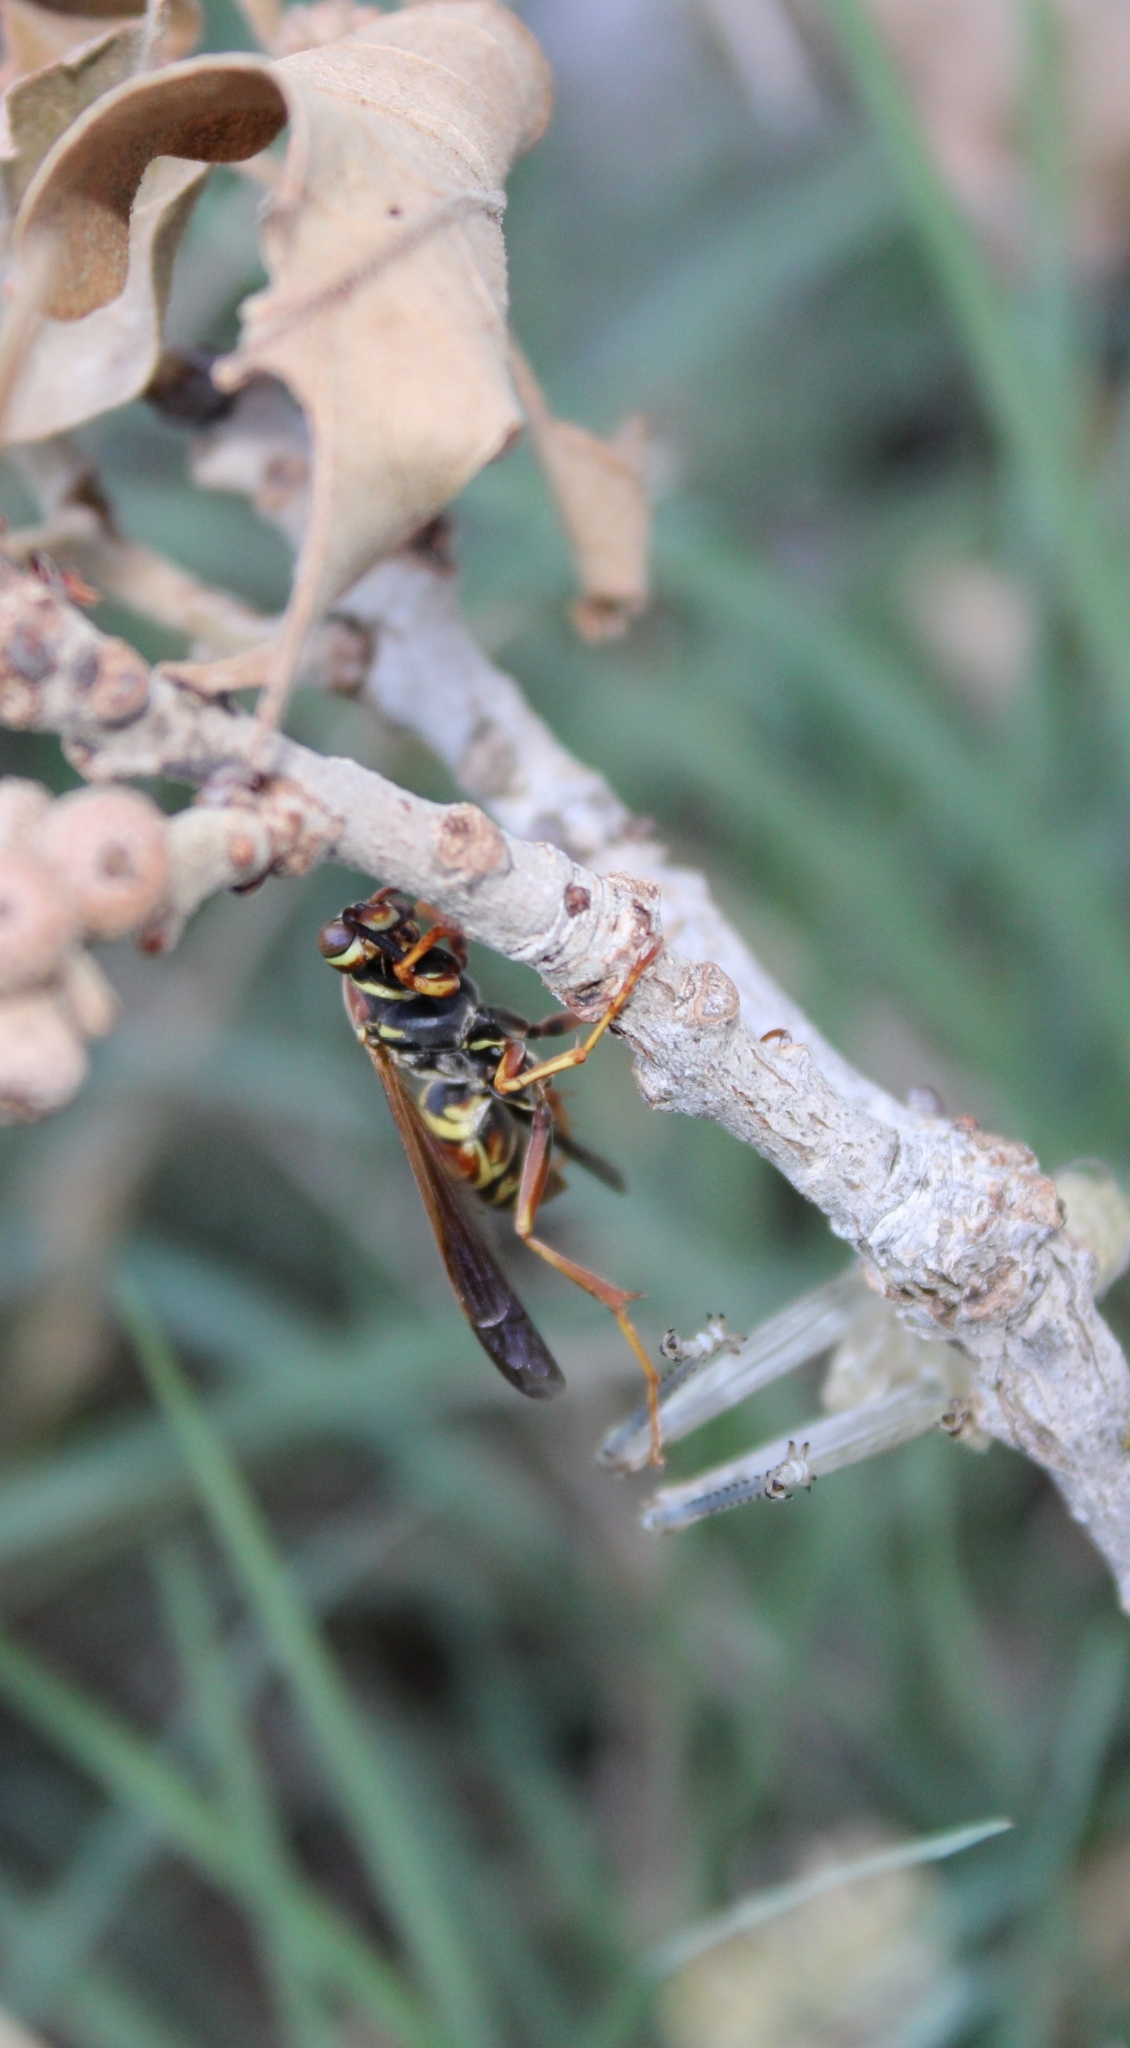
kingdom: Animalia
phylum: Arthropoda
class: Insecta
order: Hymenoptera
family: Eumenidae
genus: Polistes
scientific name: Polistes fuscatus
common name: Dark paper wasp
